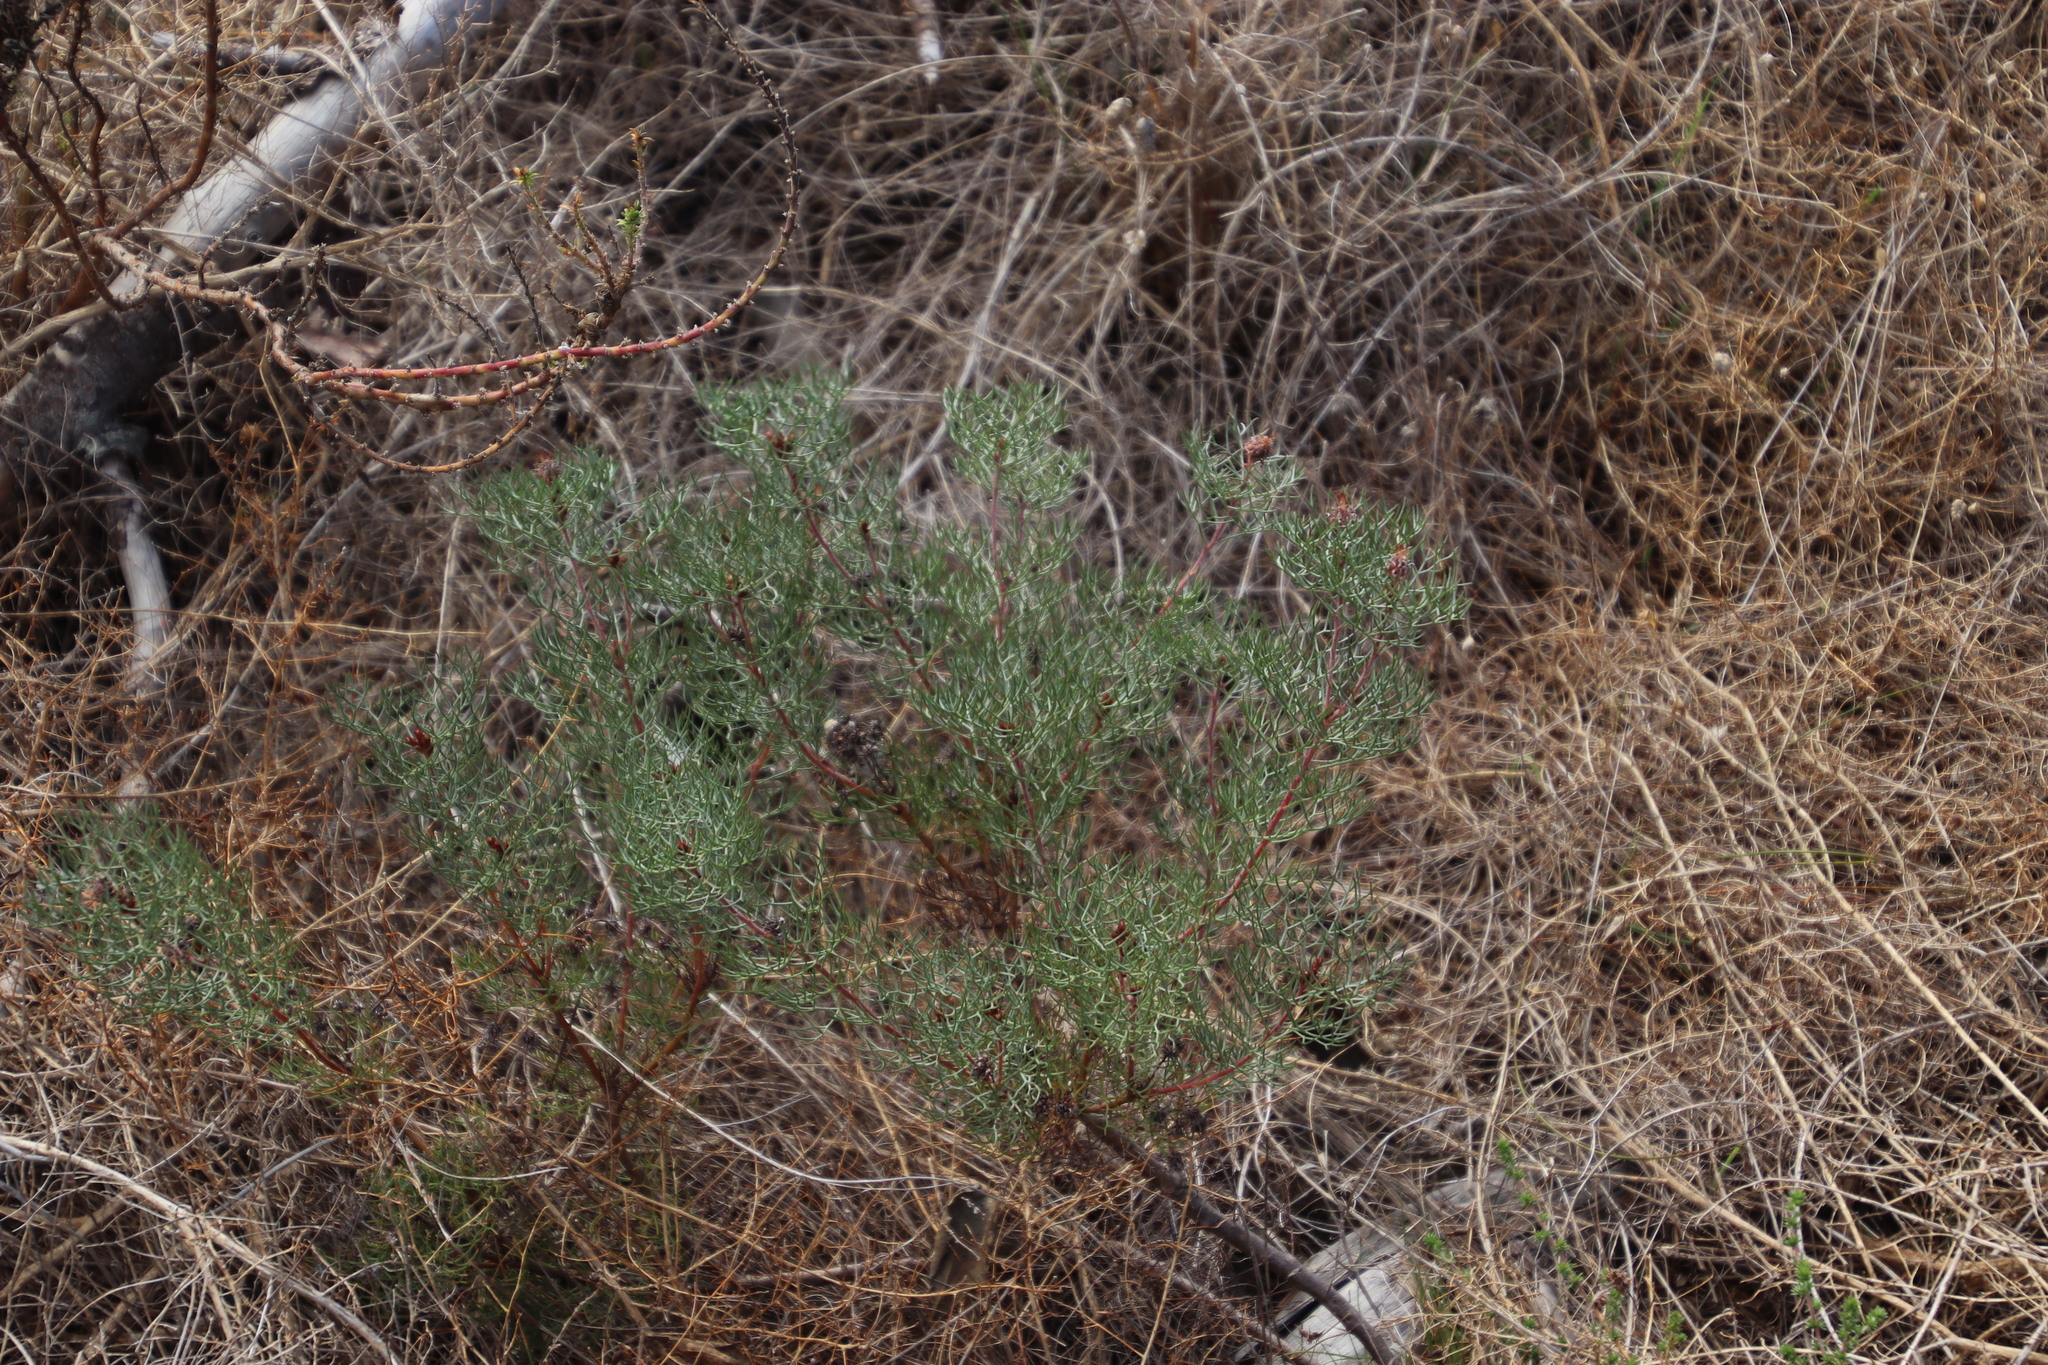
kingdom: Plantae
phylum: Tracheophyta
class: Magnoliopsida
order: Proteales
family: Proteaceae
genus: Serruria
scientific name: Serruria fasciflora
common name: Common pin spiderhead
